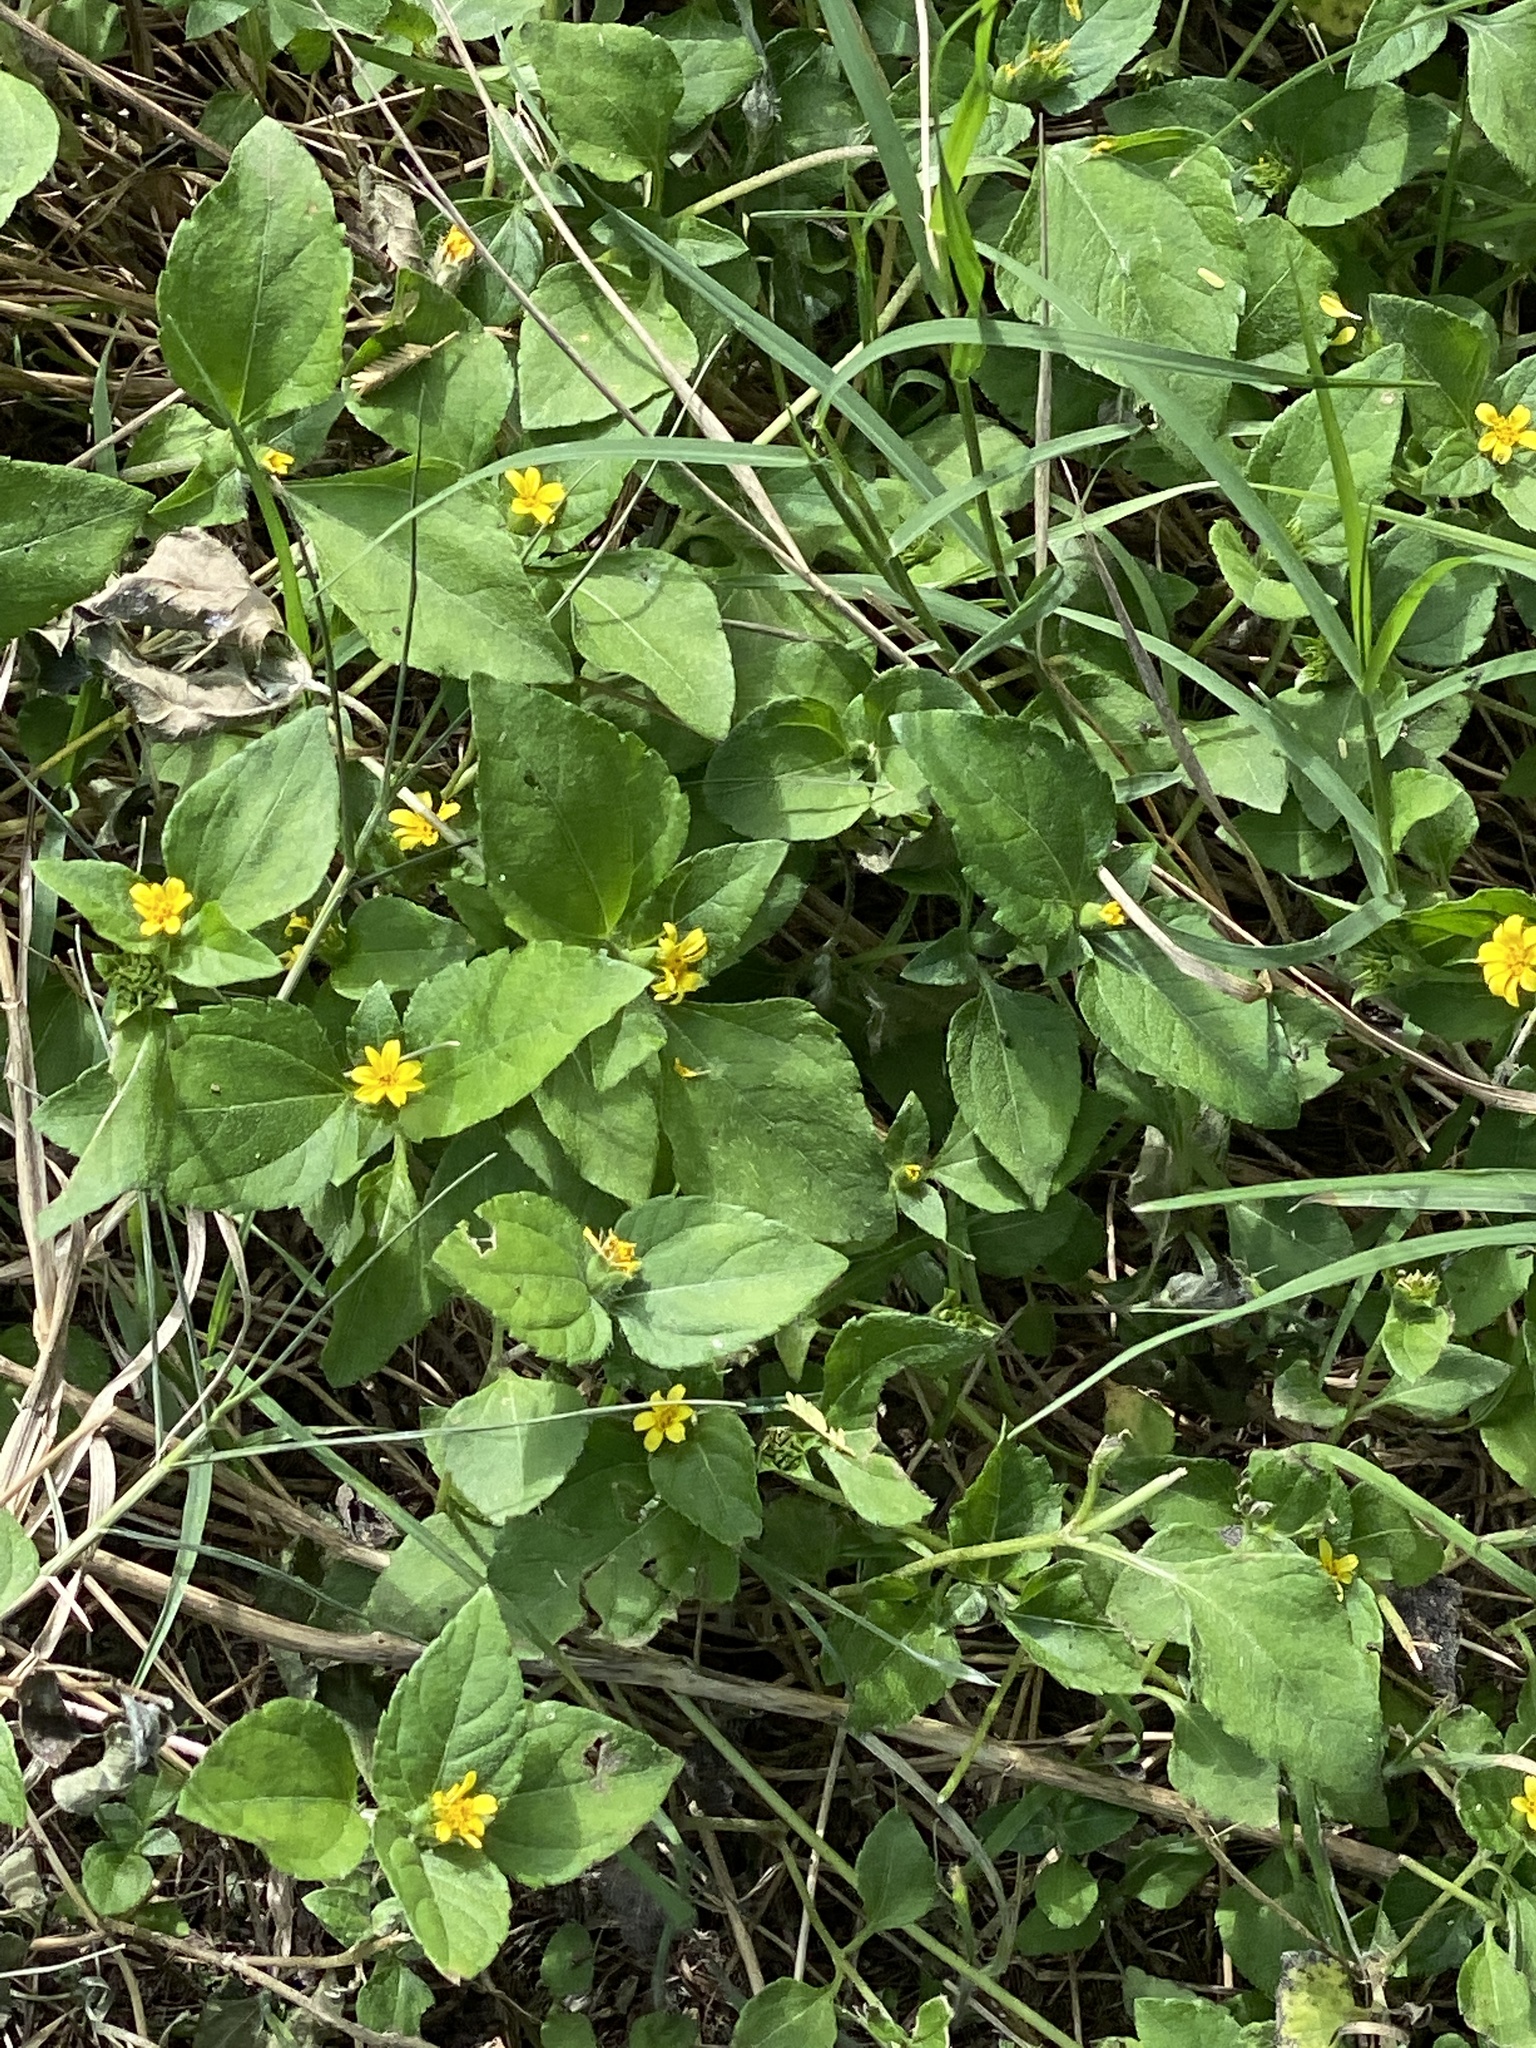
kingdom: Plantae
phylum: Tracheophyta
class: Magnoliopsida
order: Asterales
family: Asteraceae
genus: Calyptocarpus
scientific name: Calyptocarpus vialis
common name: Straggler daisy
